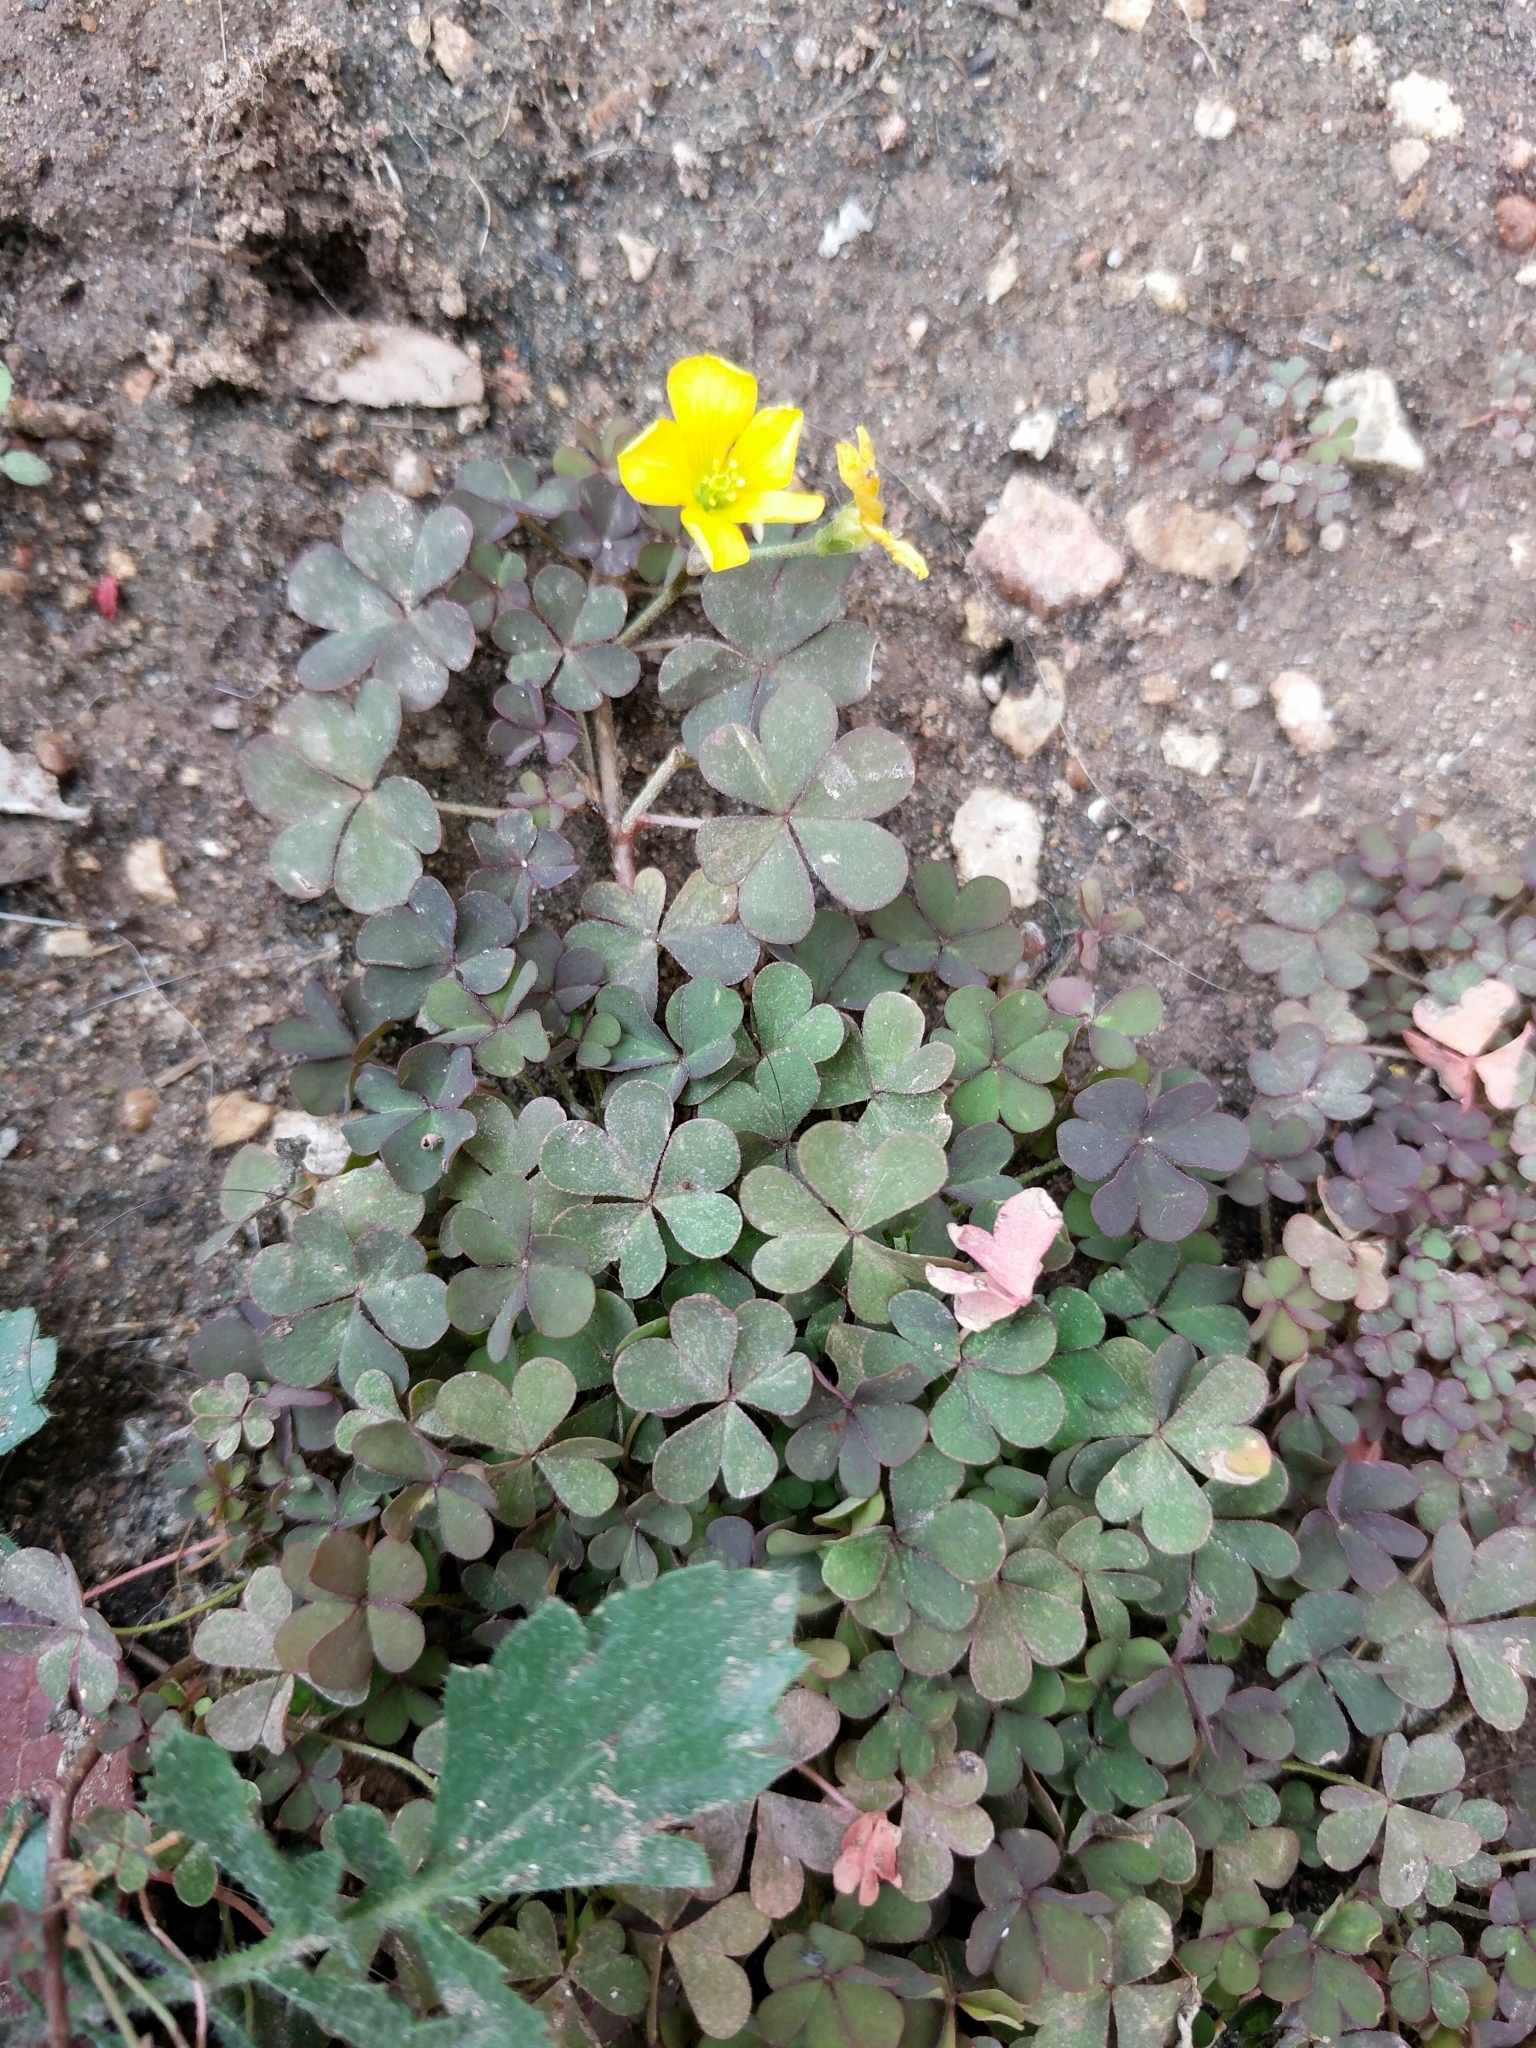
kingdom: Plantae
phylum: Tracheophyta
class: Magnoliopsida
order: Oxalidales
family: Oxalidaceae
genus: Oxalis
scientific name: Oxalis corniculata
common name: Procumbent yellow-sorrel
